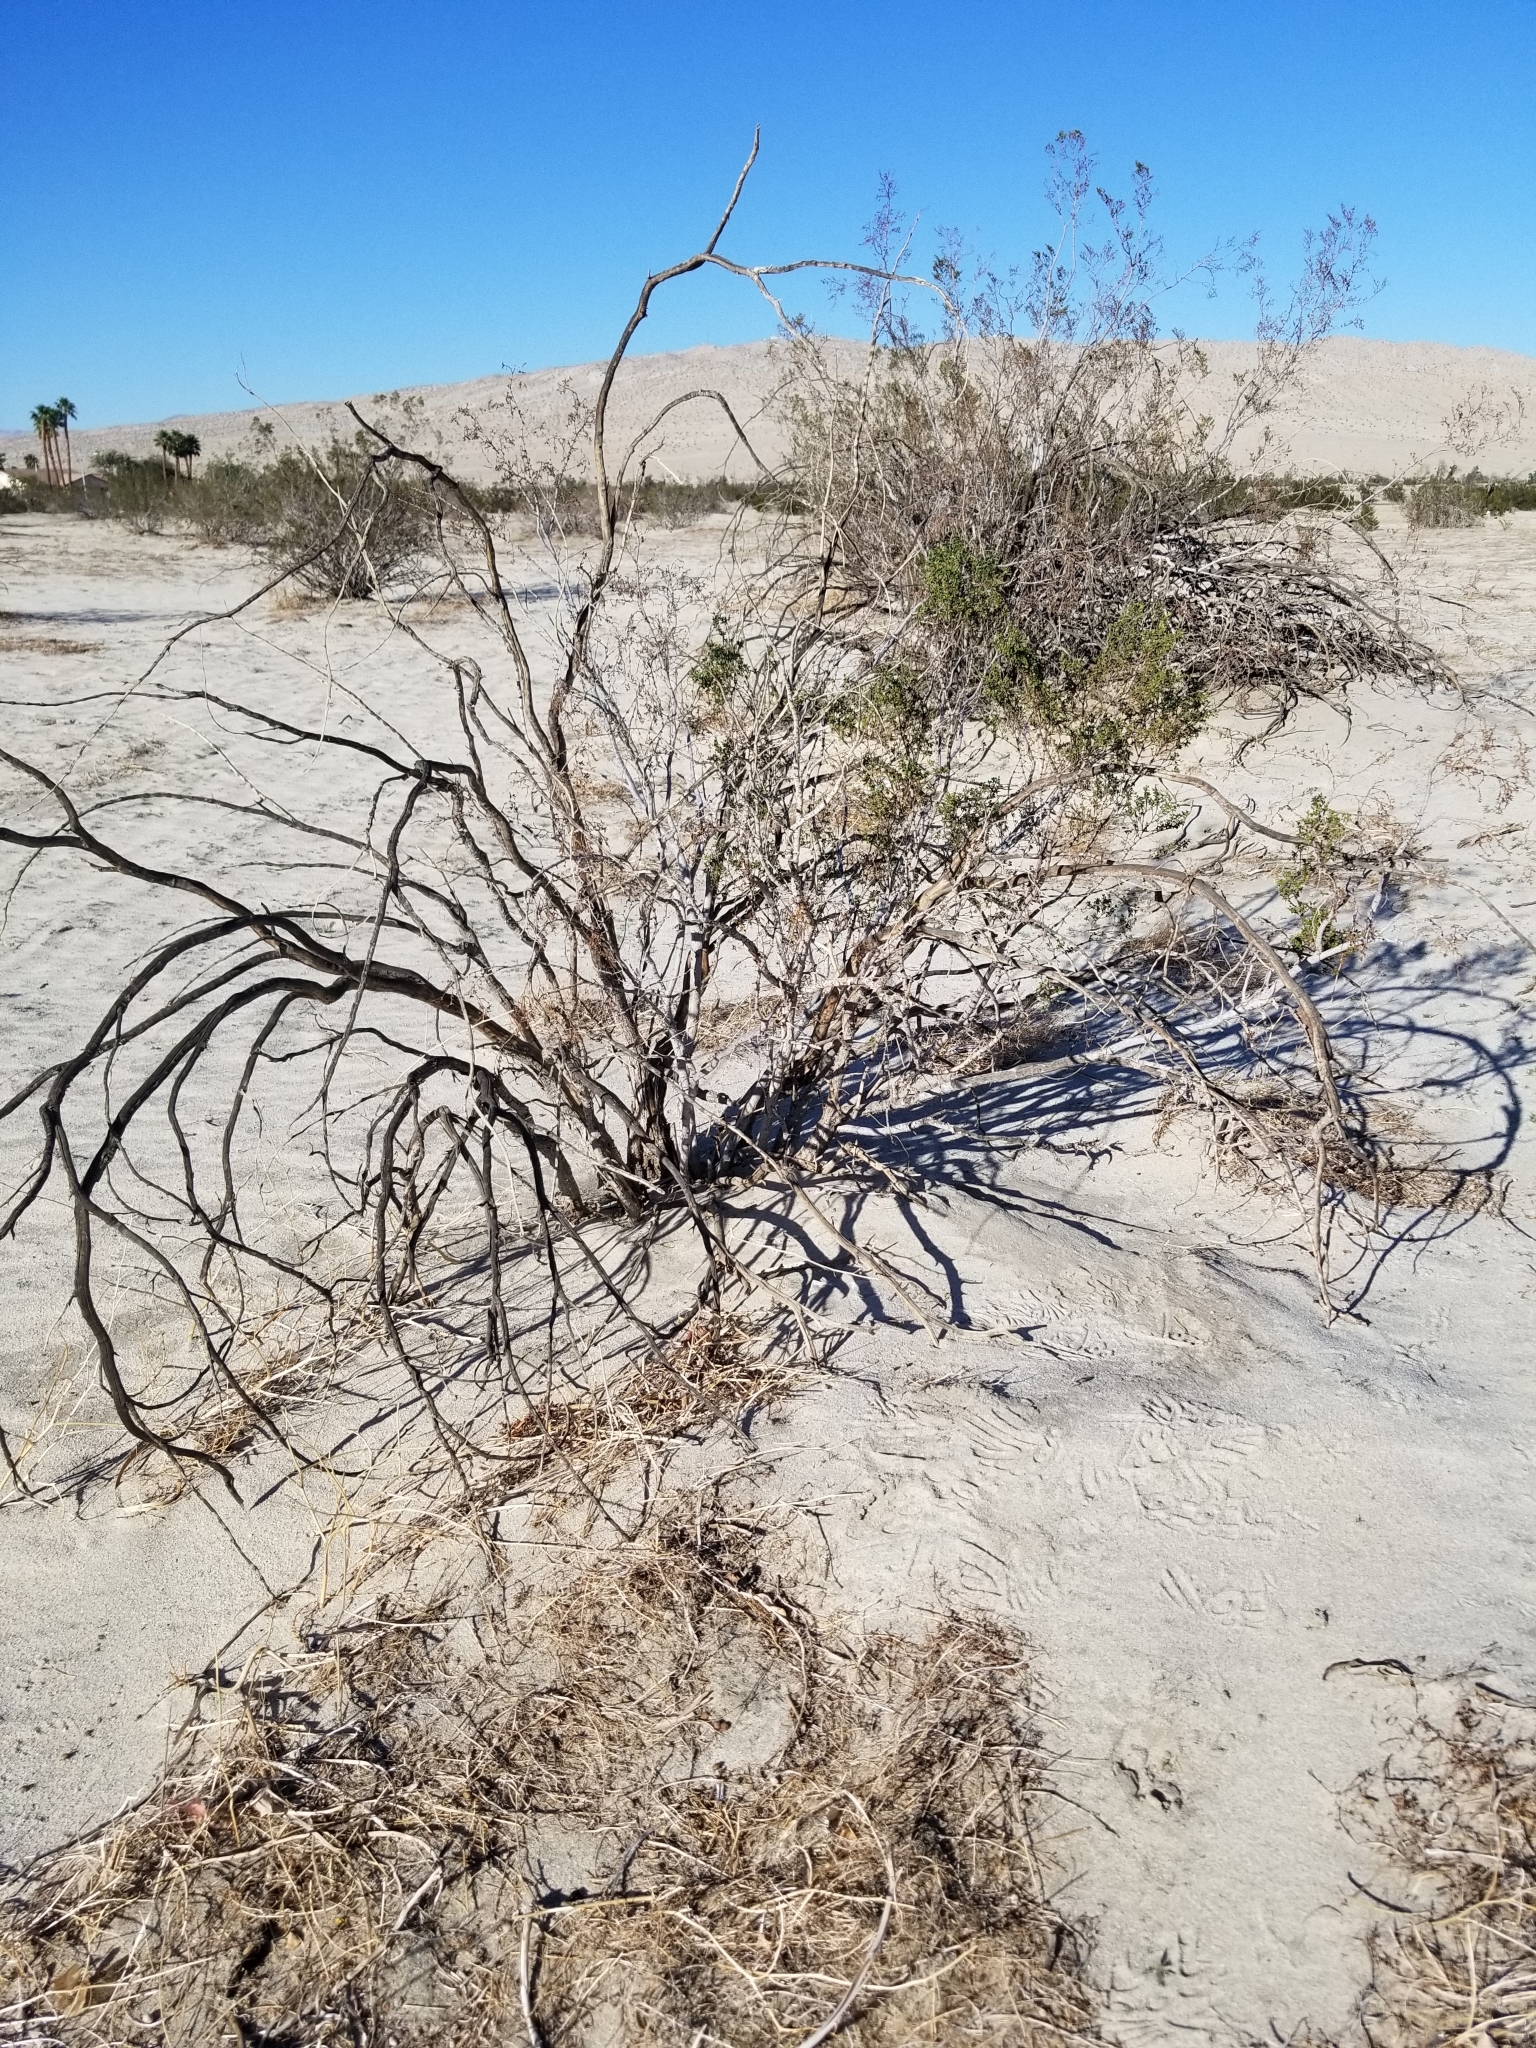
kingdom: Plantae
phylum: Tracheophyta
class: Magnoliopsida
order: Zygophyllales
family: Zygophyllaceae
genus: Larrea
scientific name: Larrea tridentata
